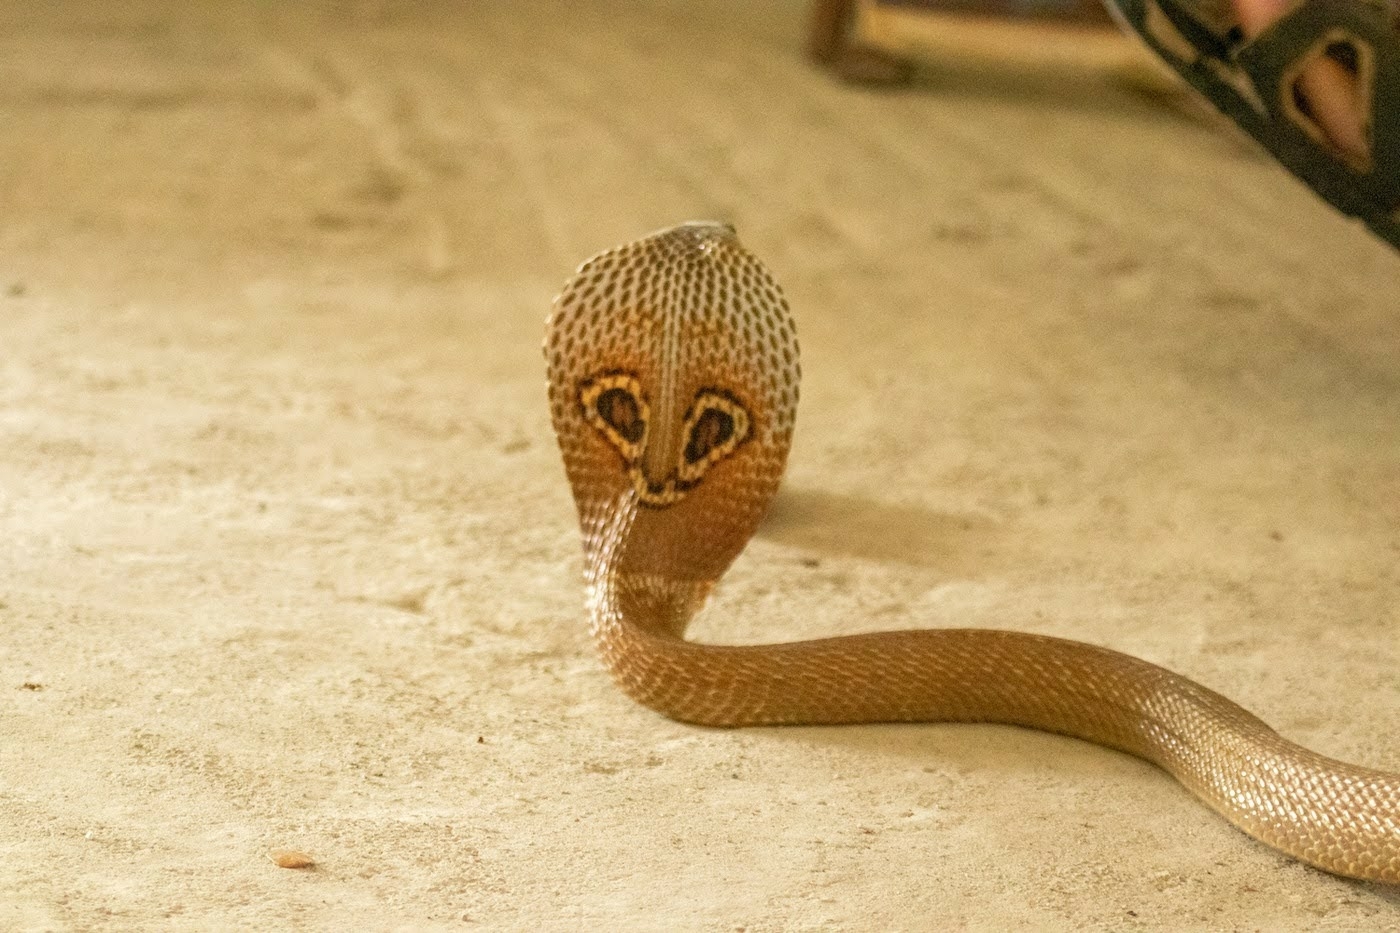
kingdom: Animalia
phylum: Chordata
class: Squamata
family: Elapidae
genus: Naja
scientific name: Naja naja
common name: Indian cobra
